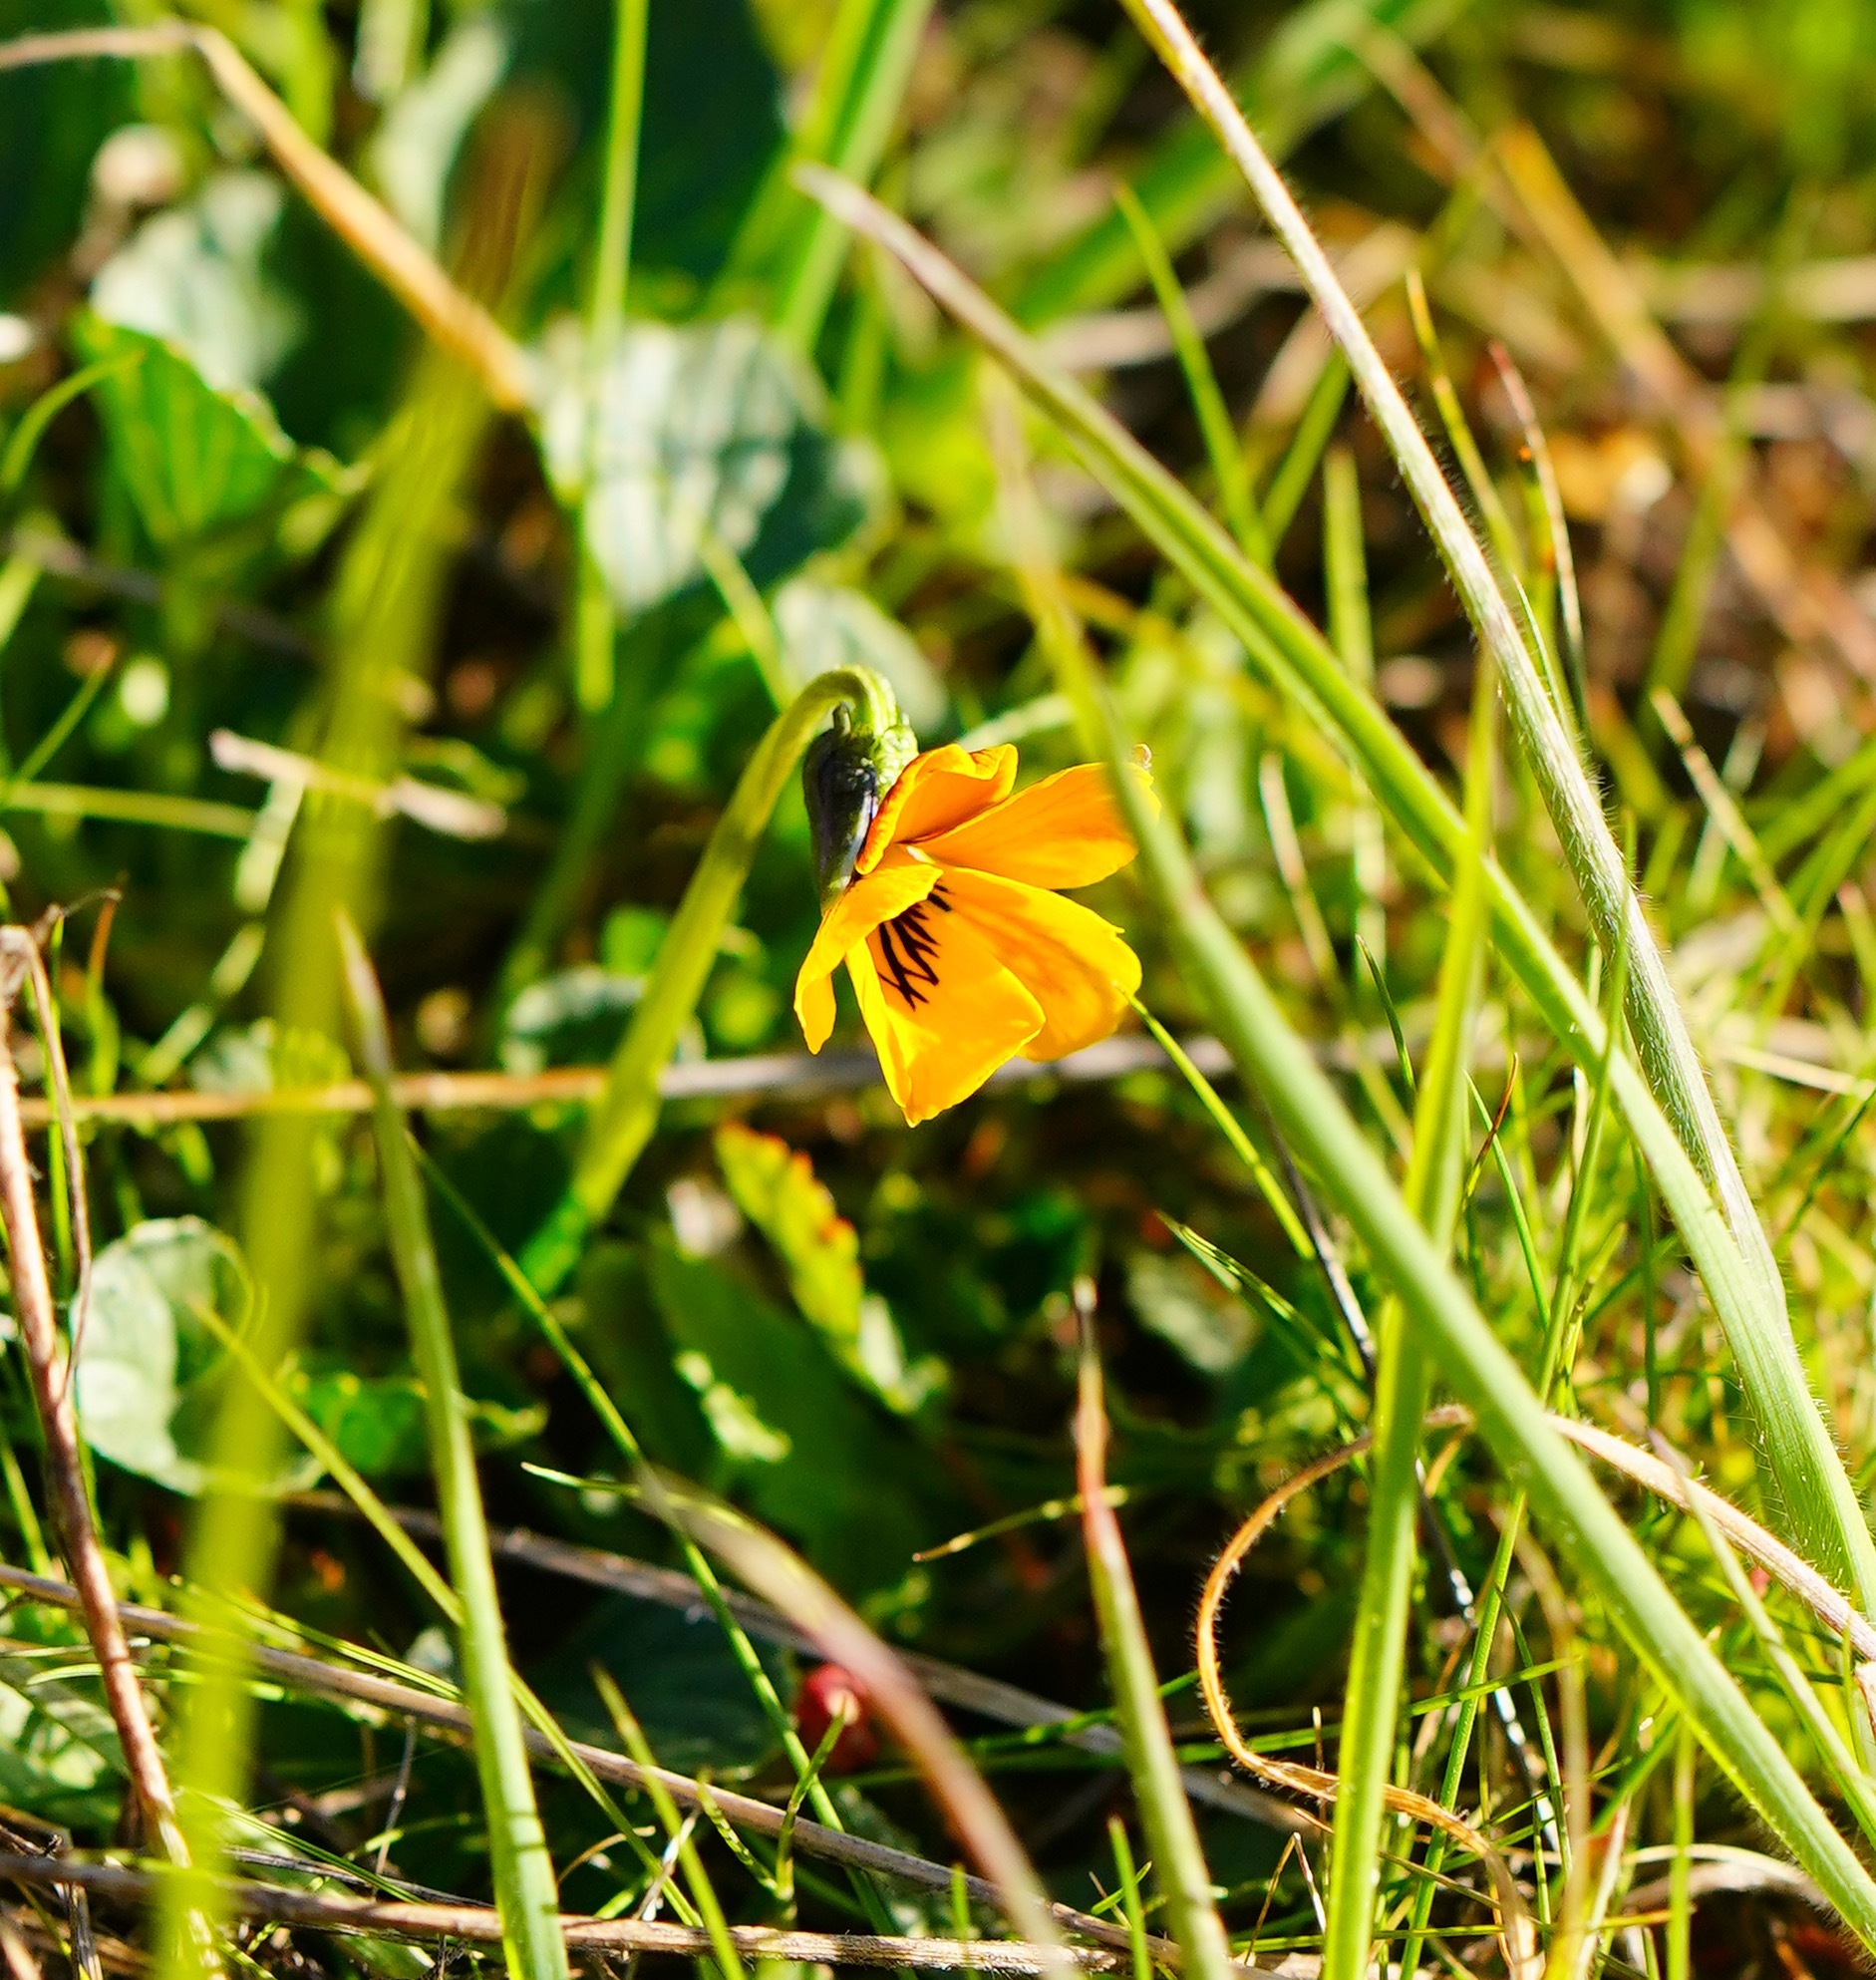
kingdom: Plantae
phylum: Tracheophyta
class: Magnoliopsida
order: Malpighiales
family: Violaceae
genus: Viola
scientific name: Viola pedunculata
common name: California golden violet
